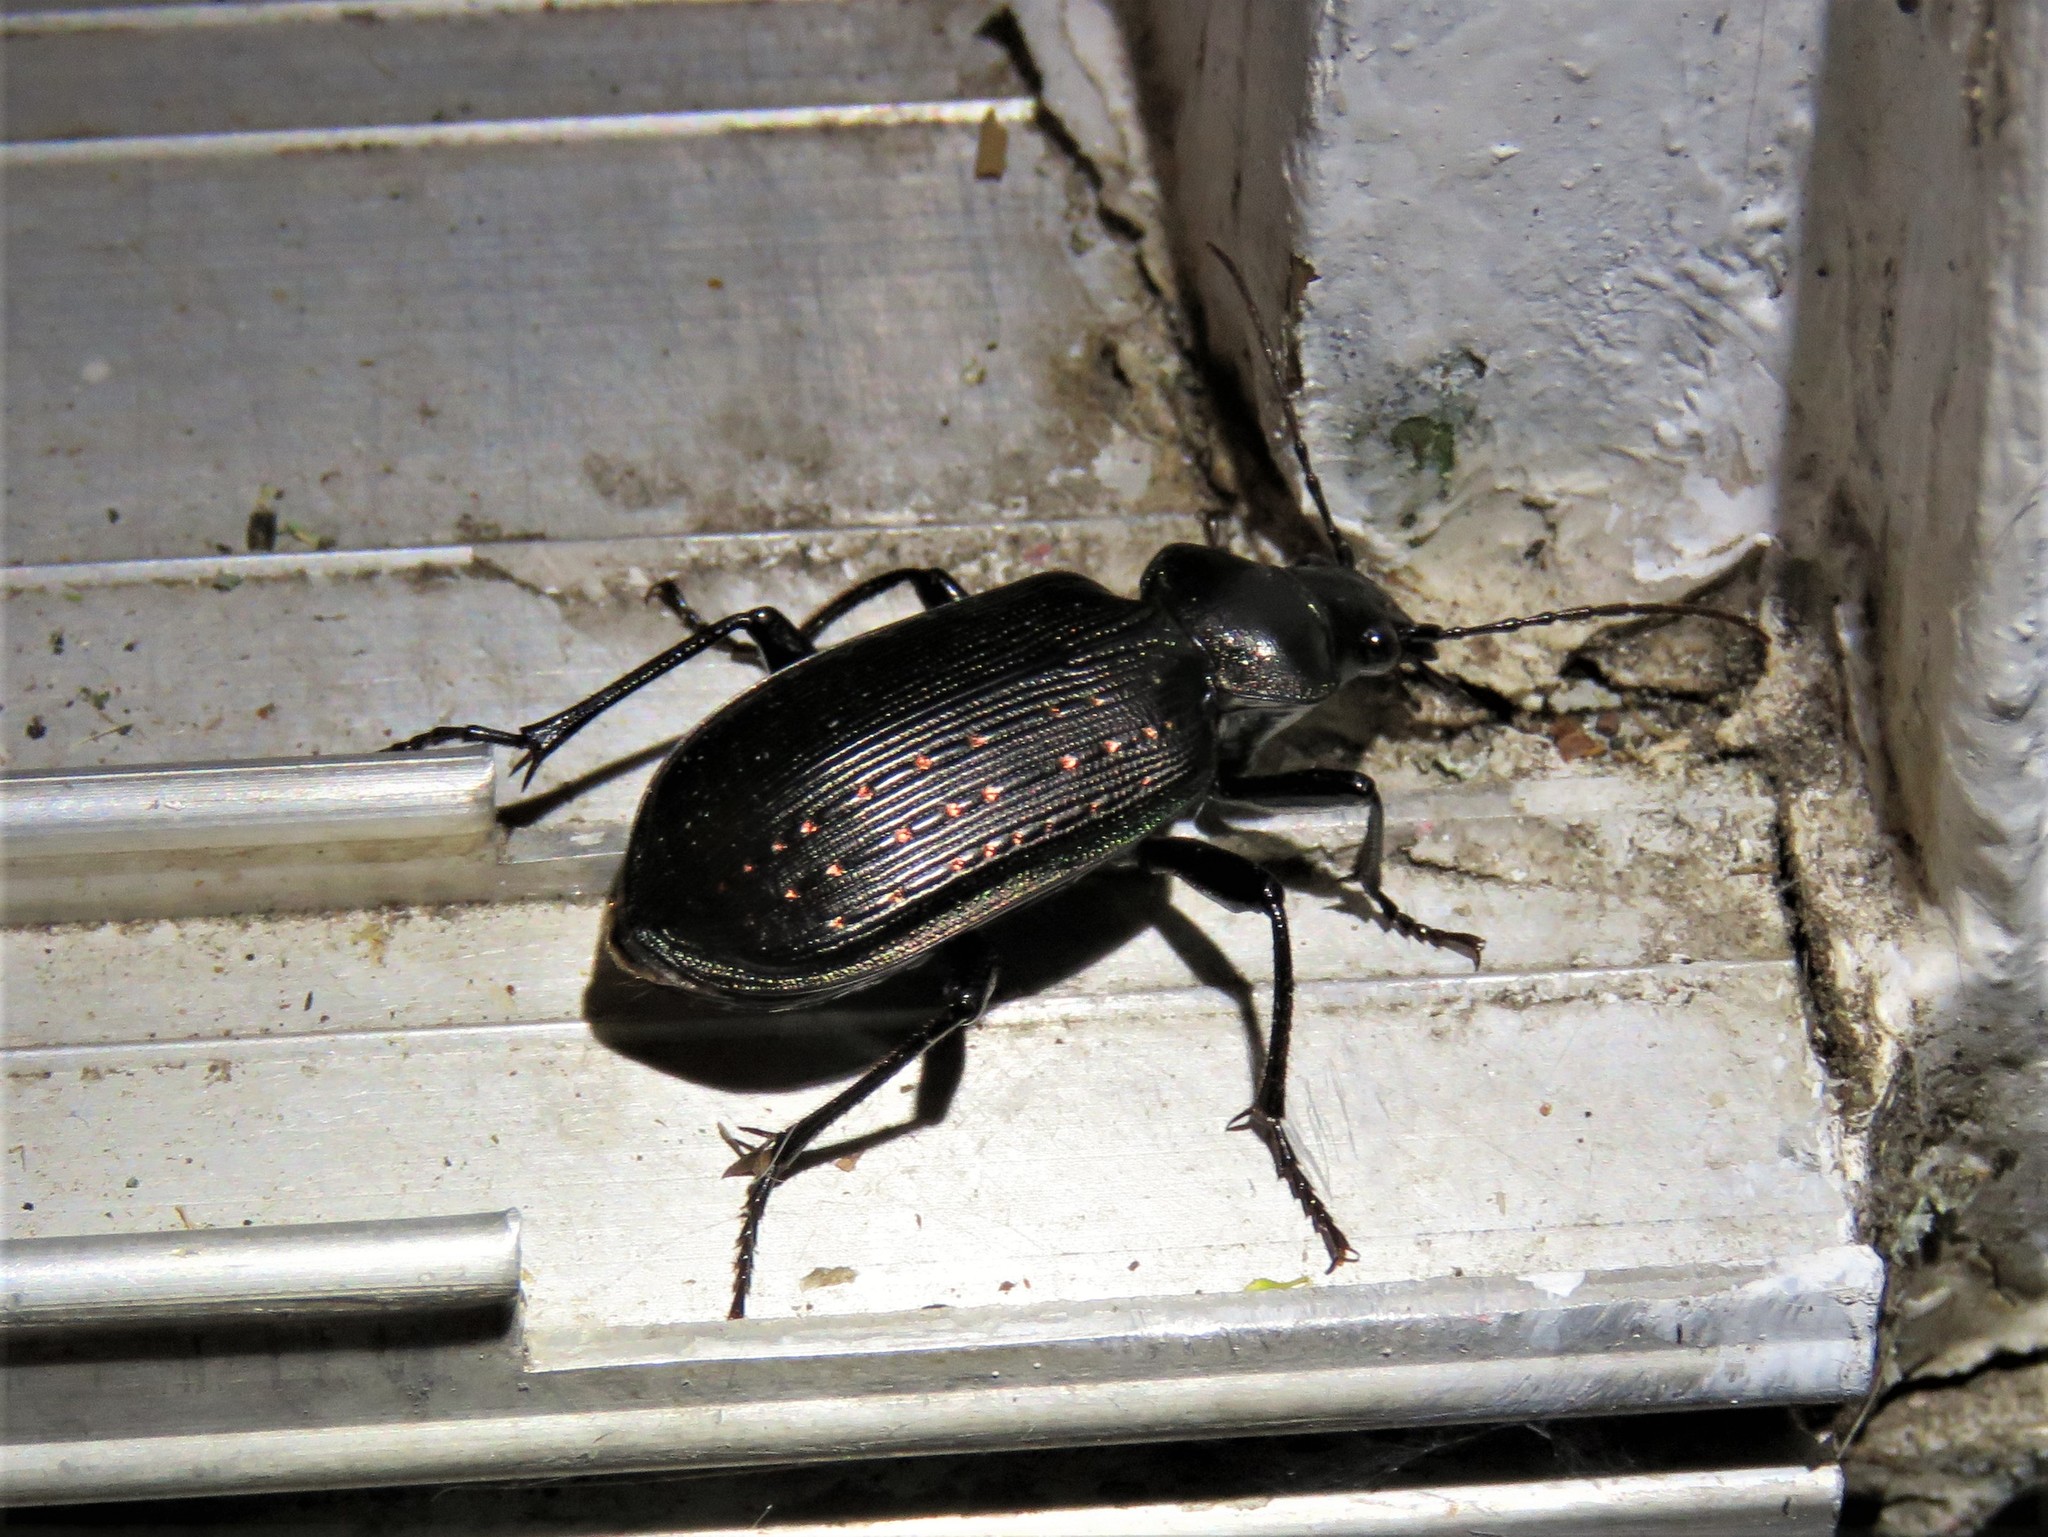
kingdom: Animalia
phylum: Arthropoda
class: Insecta
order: Coleoptera
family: Carabidae
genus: Calosoma
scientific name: Calosoma sayi
